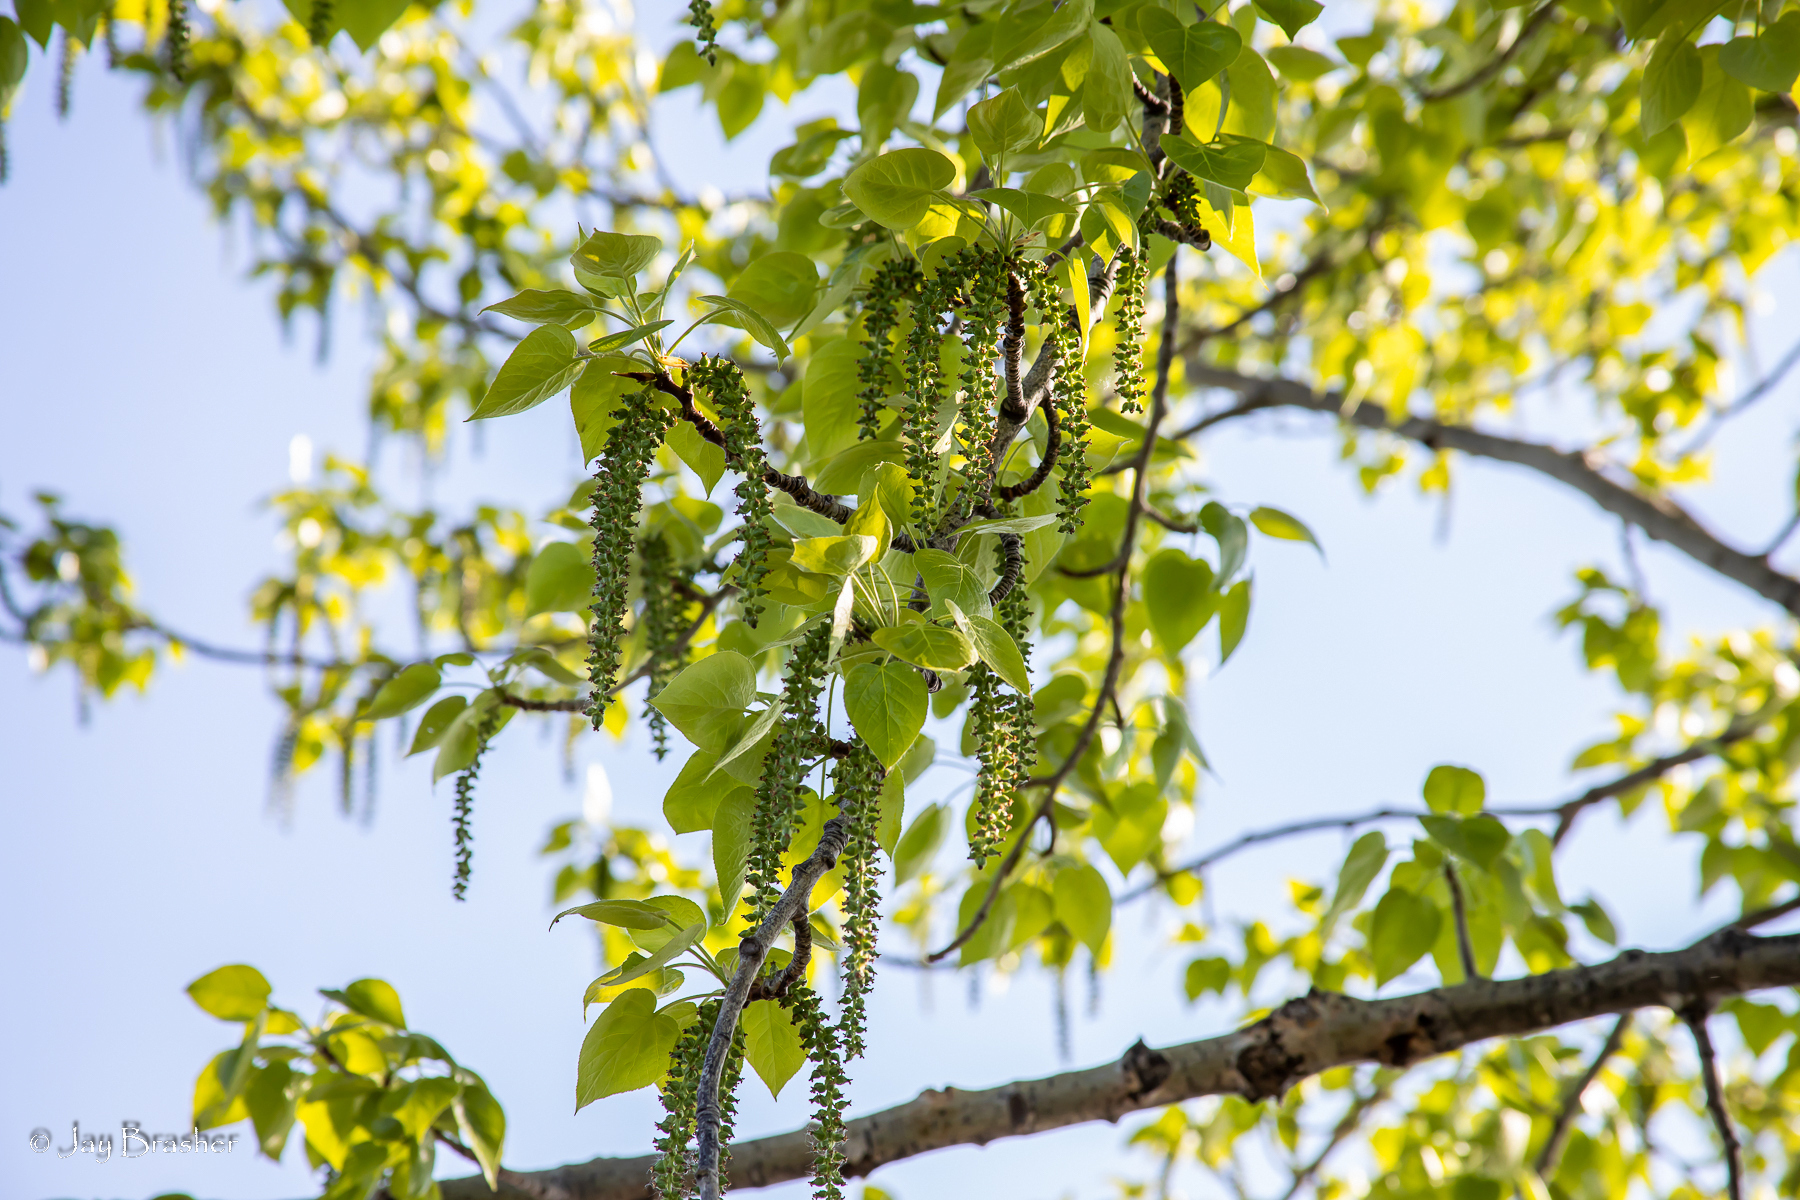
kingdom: Plantae
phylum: Tracheophyta
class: Magnoliopsida
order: Malpighiales
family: Salicaceae
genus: Populus
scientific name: Populus deltoides
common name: Eastern cottonwood
